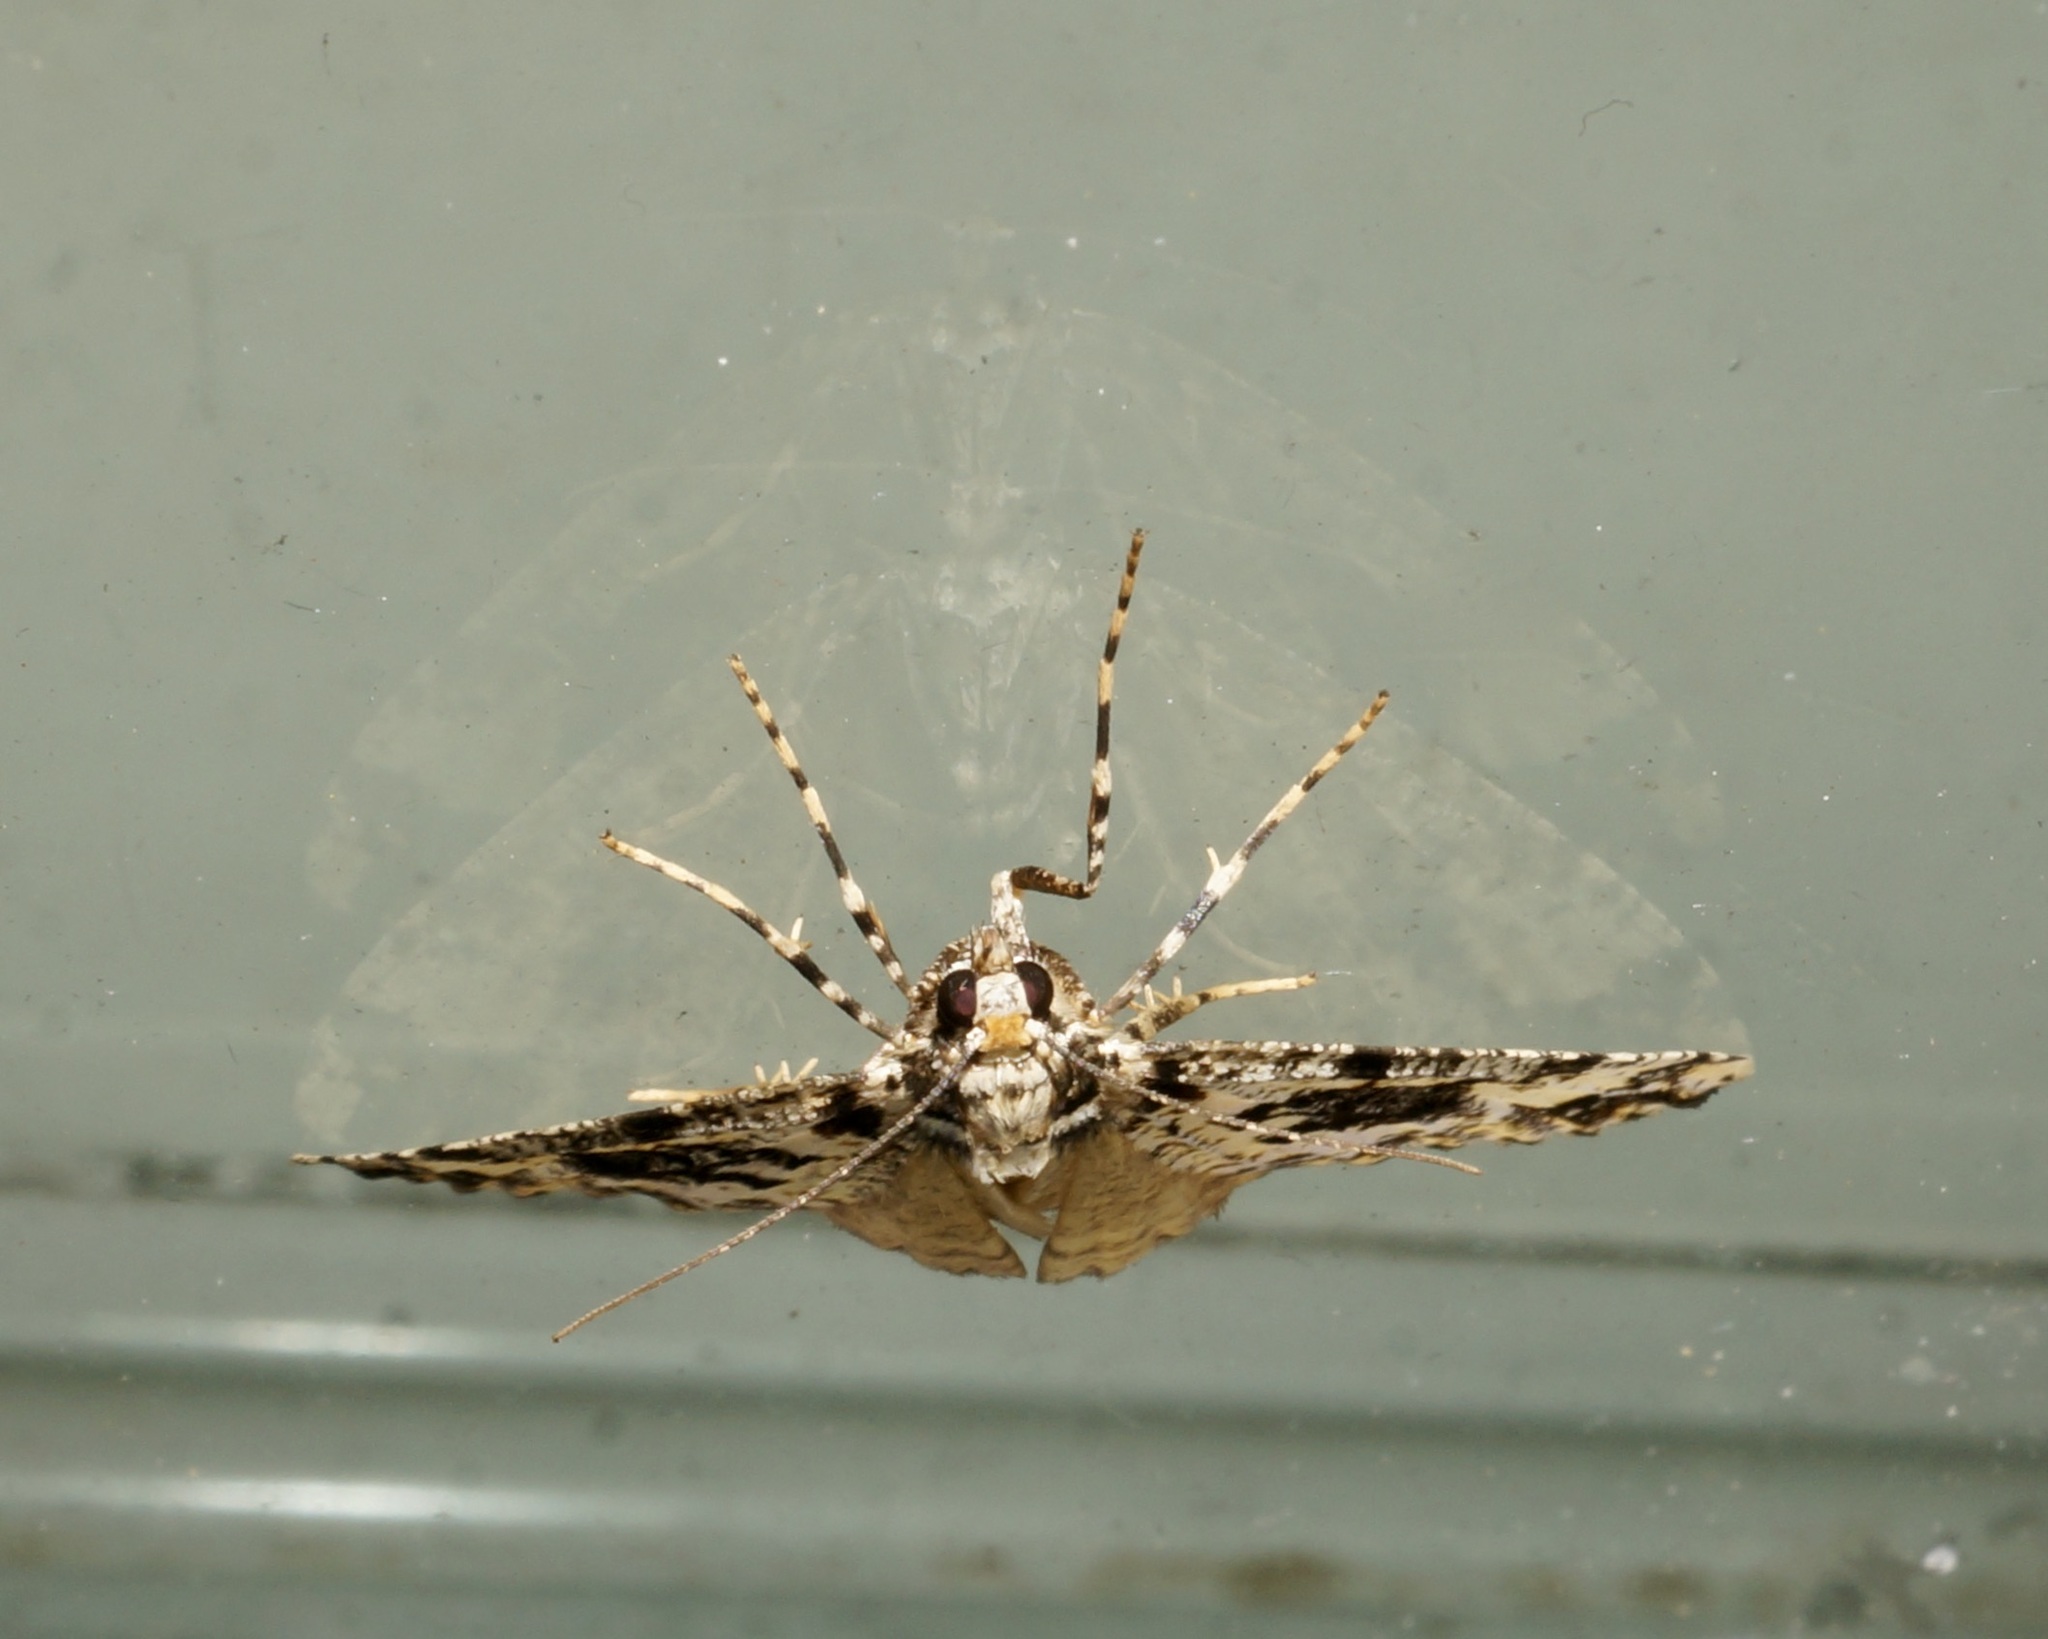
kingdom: Animalia
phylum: Arthropoda
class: Insecta
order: Lepidoptera
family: Geometridae
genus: Pseudocoremia
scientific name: Pseudocoremia leucelaea
